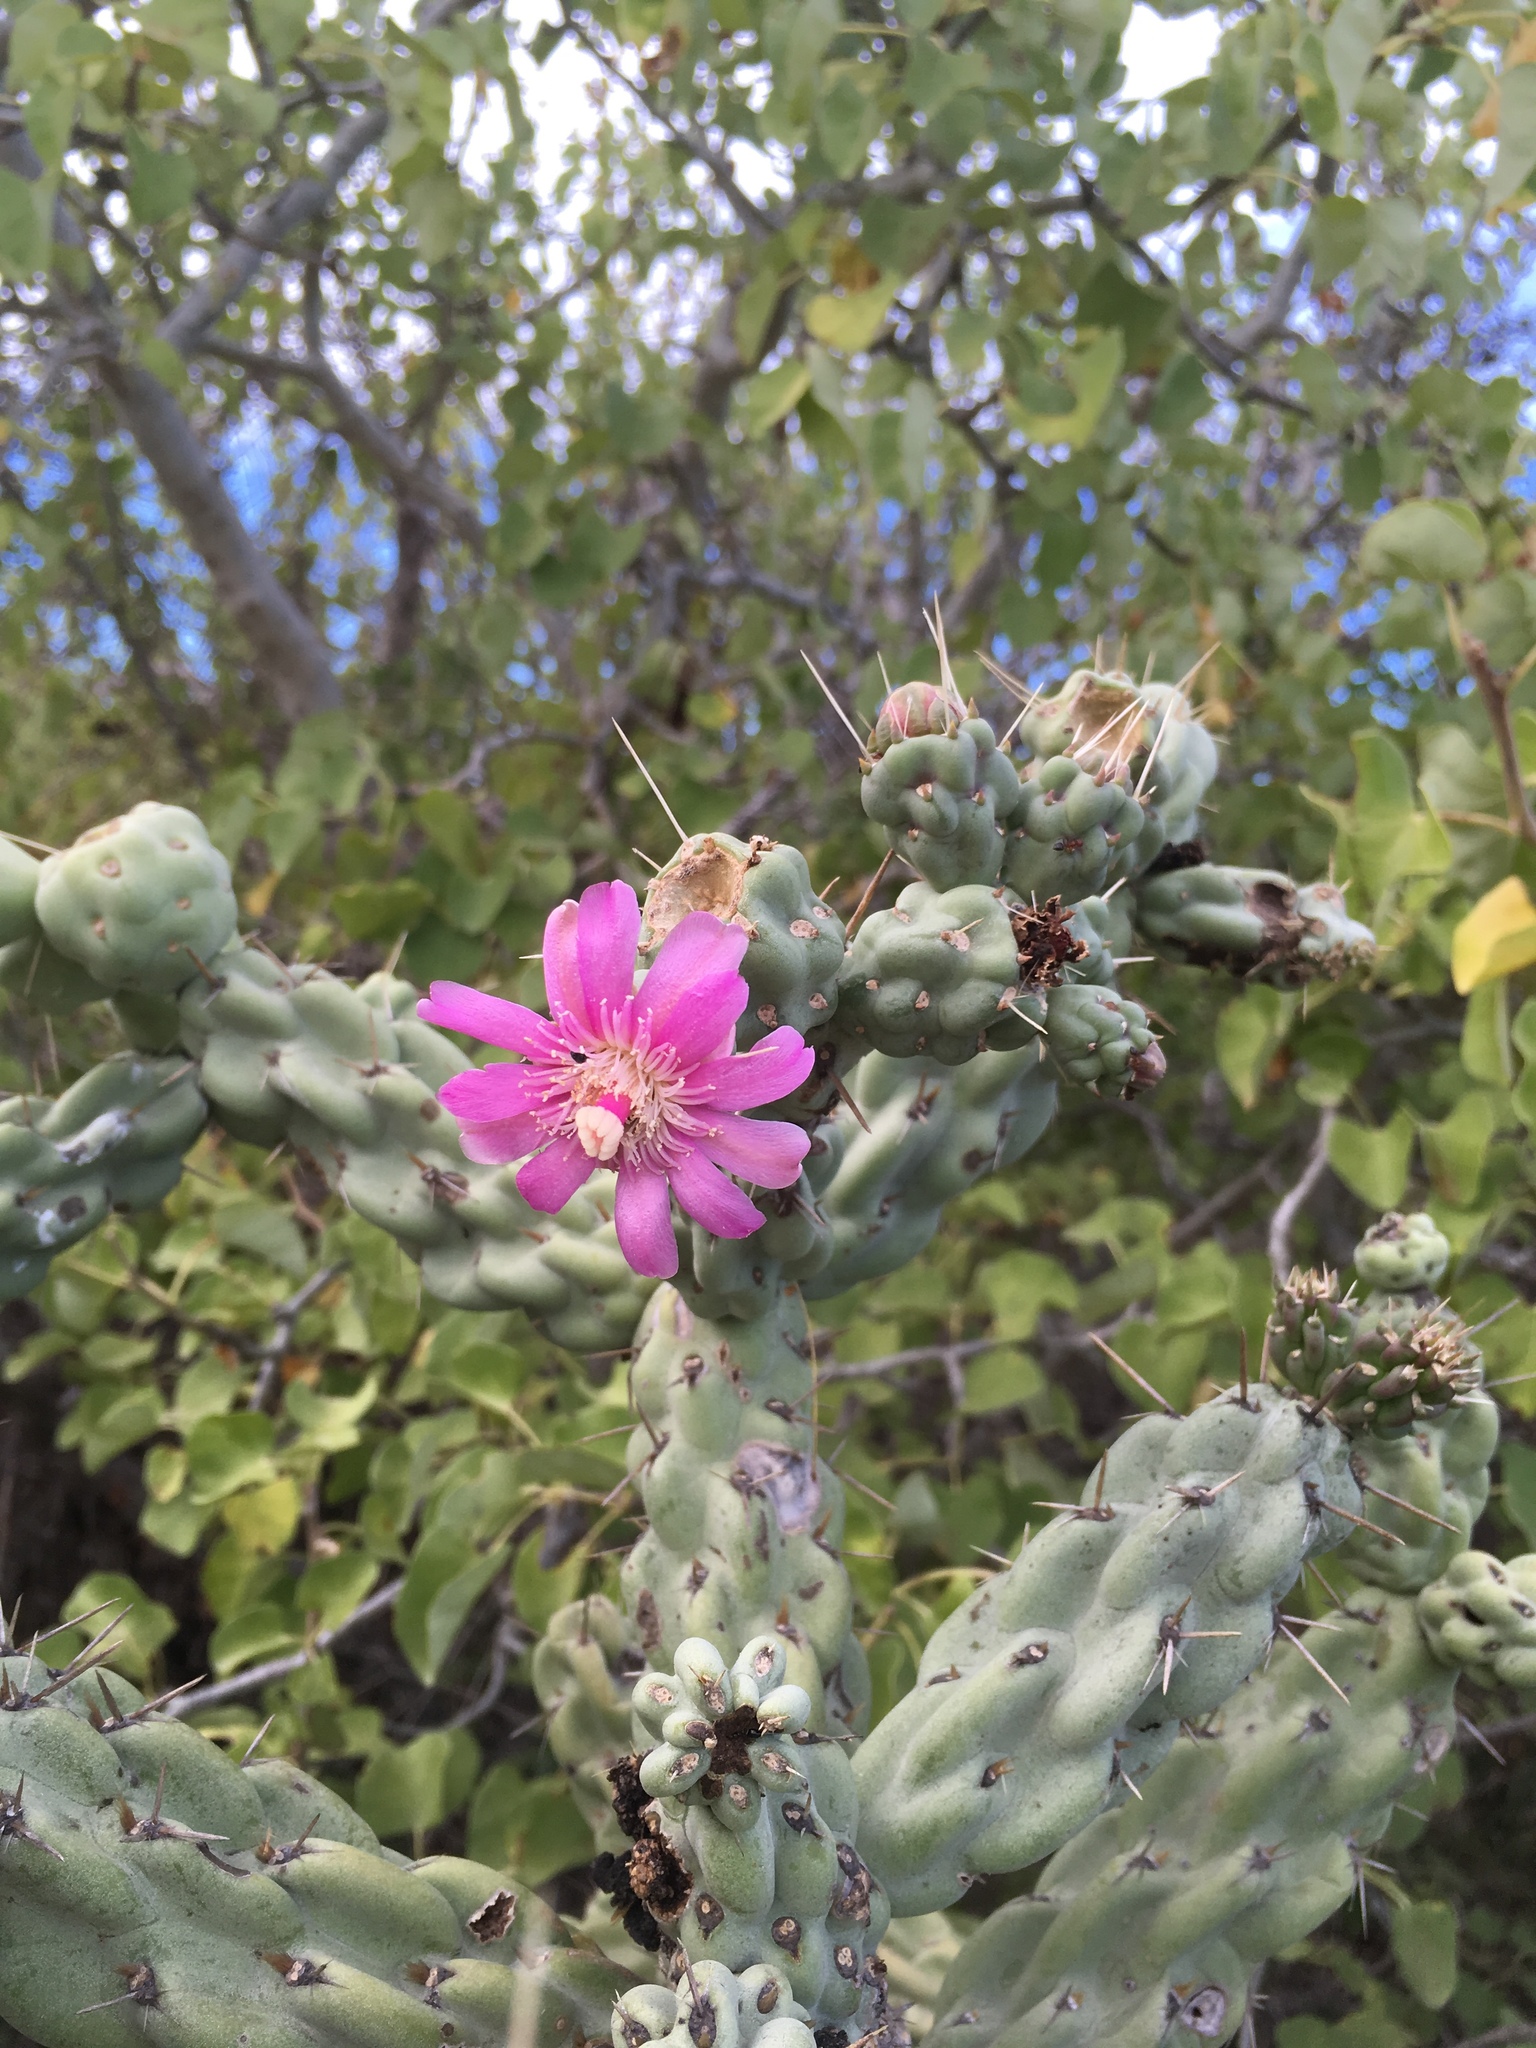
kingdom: Plantae
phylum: Tracheophyta
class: Magnoliopsida
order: Caryophyllales
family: Cactaceae
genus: Cylindropuntia
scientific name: Cylindropuntia cholla
